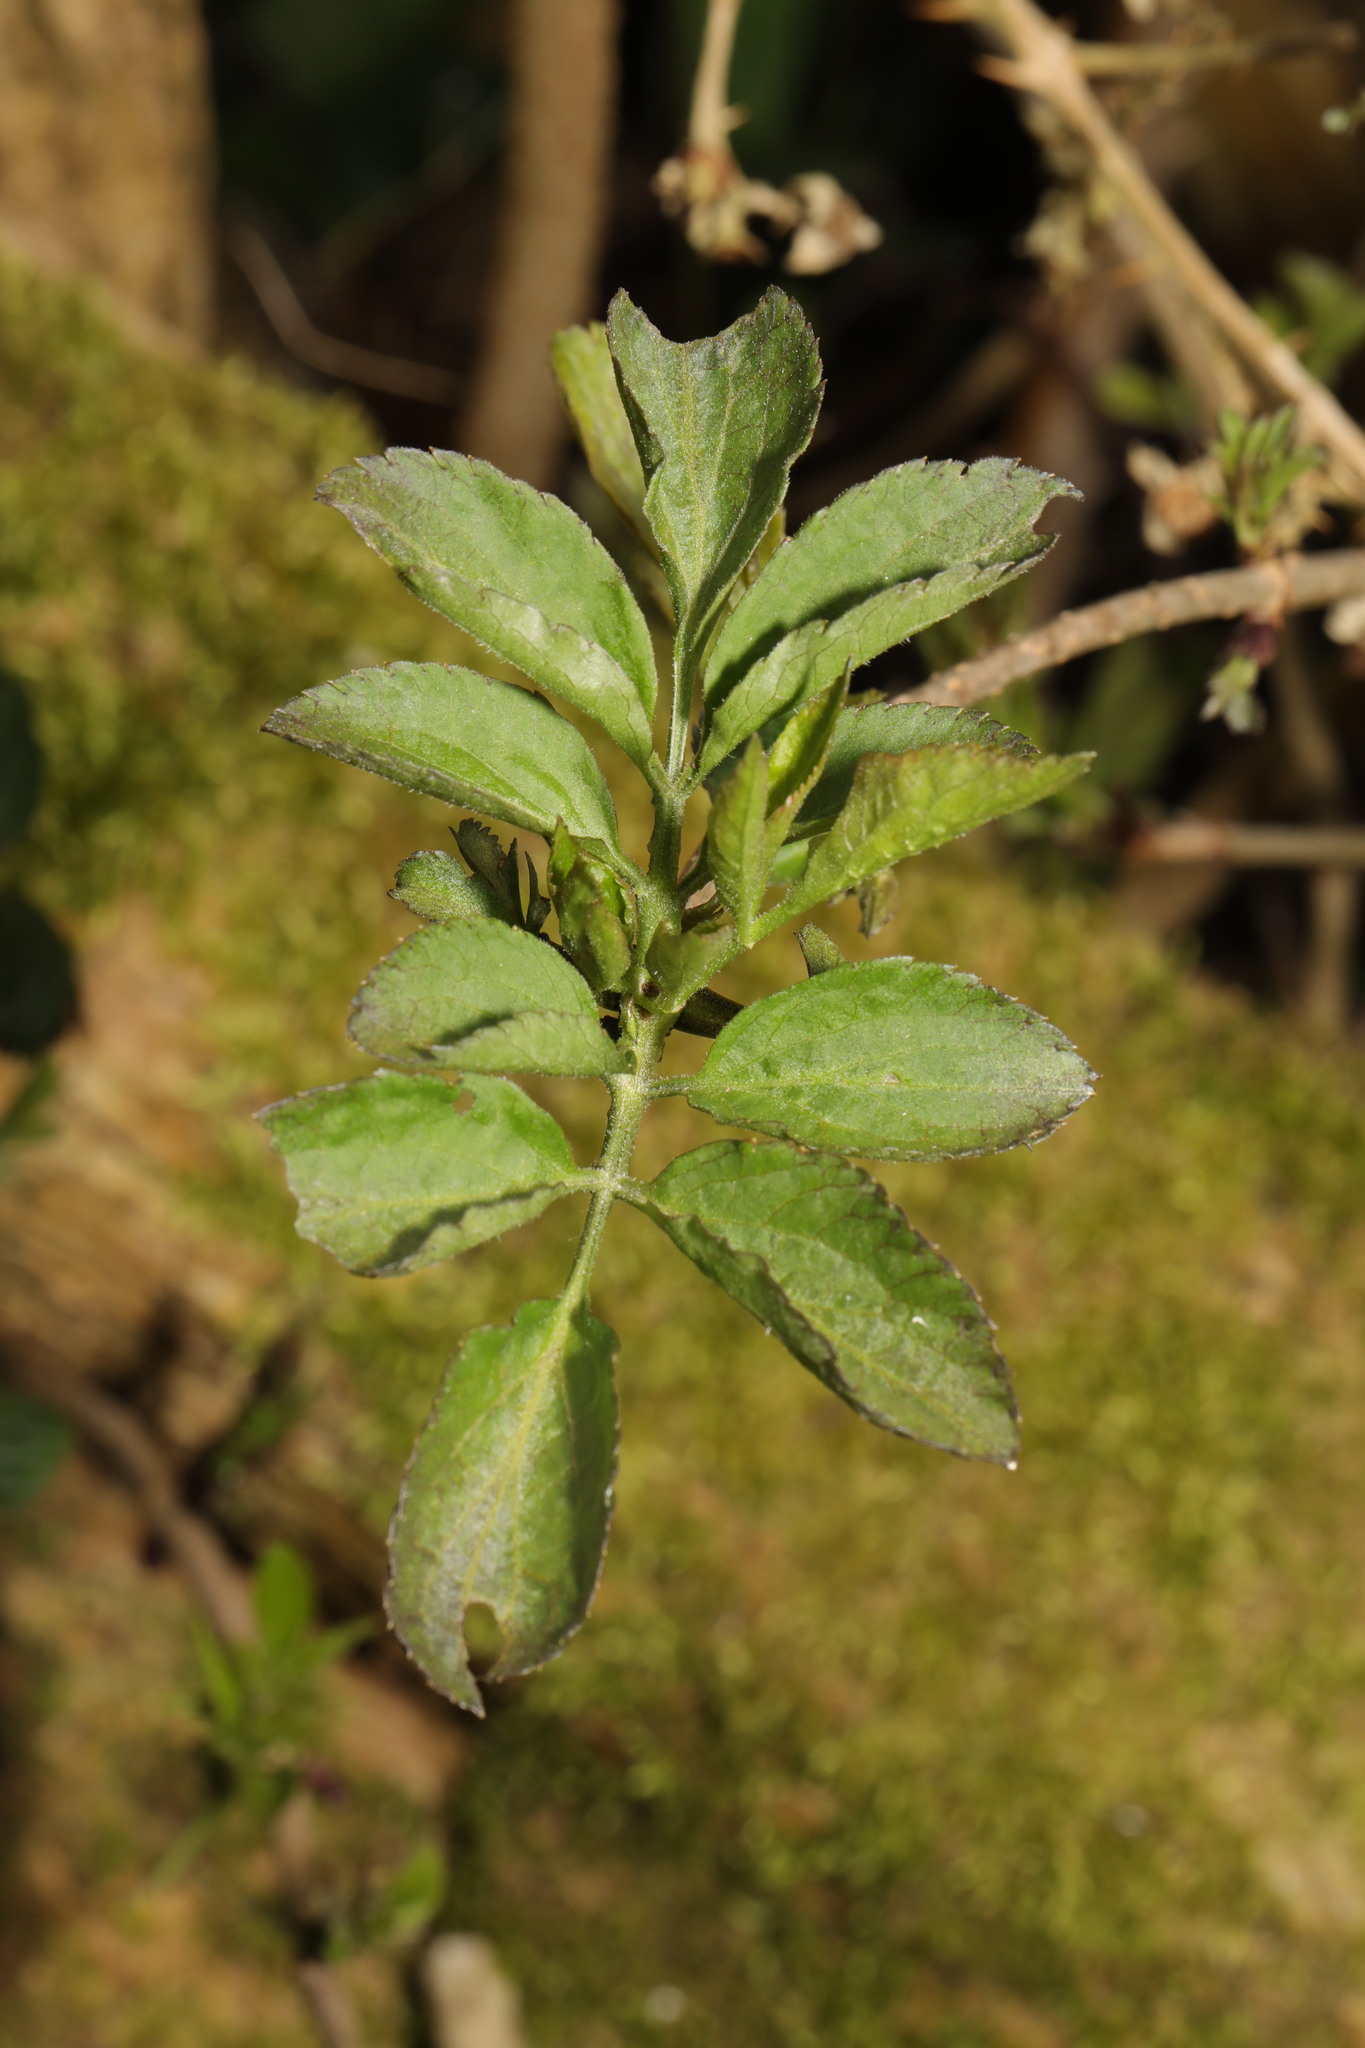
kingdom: Plantae
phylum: Tracheophyta
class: Magnoliopsida
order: Dipsacales
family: Viburnaceae
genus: Sambucus
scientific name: Sambucus nigra
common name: Elder
